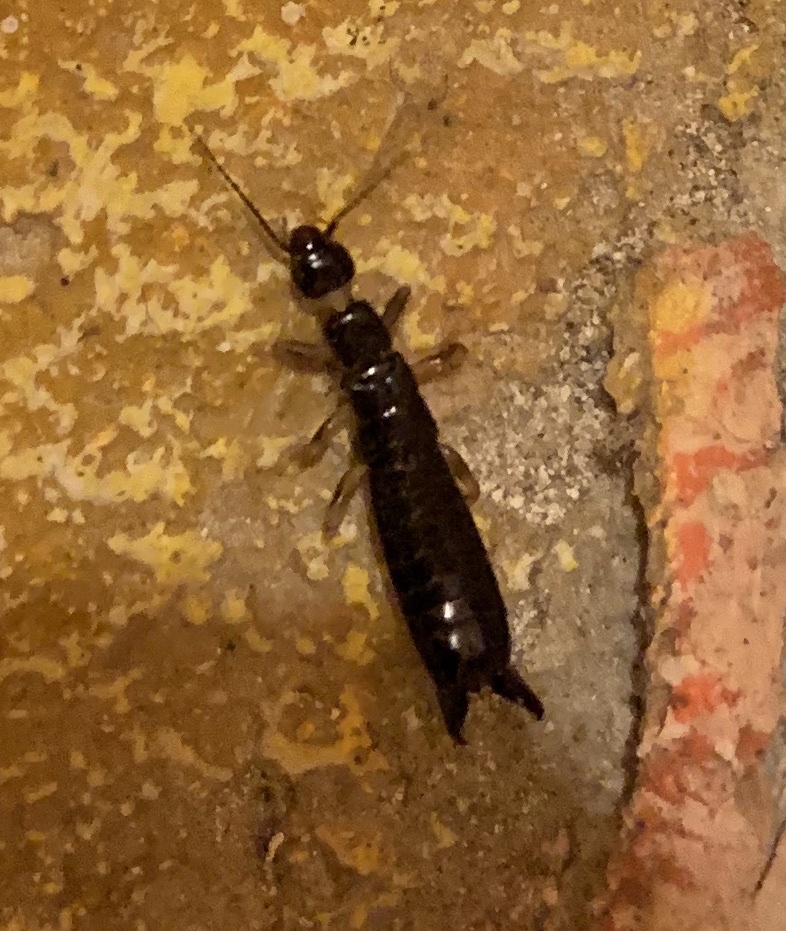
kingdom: Animalia
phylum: Arthropoda
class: Insecta
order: Dermaptera
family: Anisolabididae
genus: Euborellia
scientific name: Euborellia caraibea
